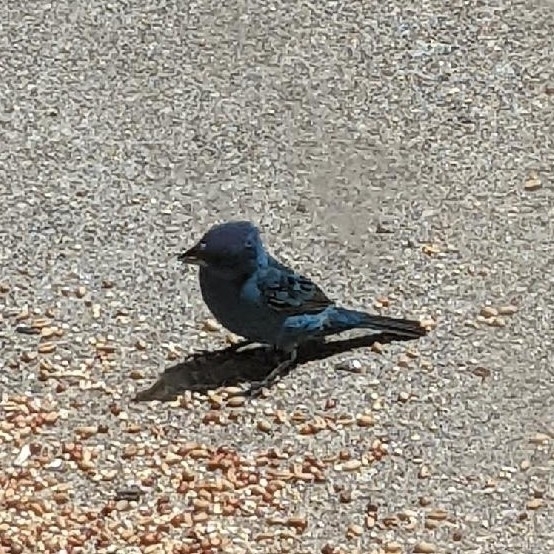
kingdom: Animalia
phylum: Chordata
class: Aves
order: Passeriformes
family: Cardinalidae
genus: Passerina
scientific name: Passerina cyanea
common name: Indigo bunting
